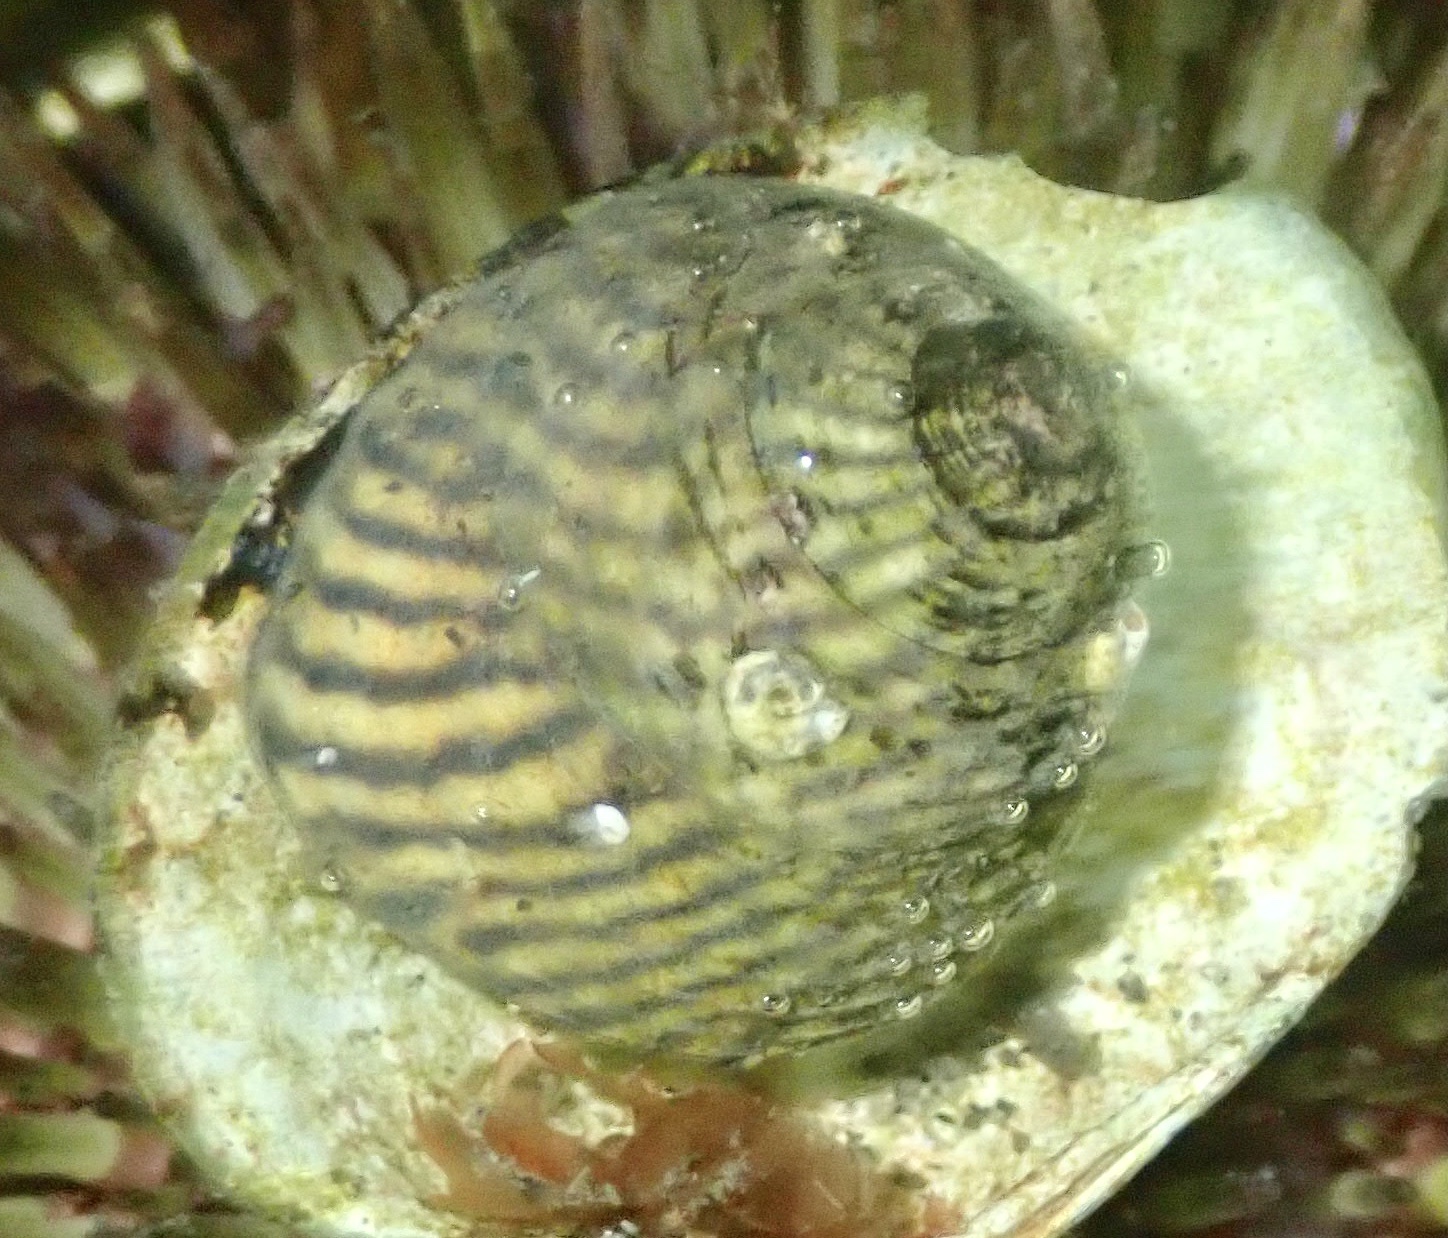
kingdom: Animalia
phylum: Mollusca
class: Gastropoda
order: Trochida
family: Trochidae
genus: Steromphala
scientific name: Steromphala cineraria
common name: Grey top shell
